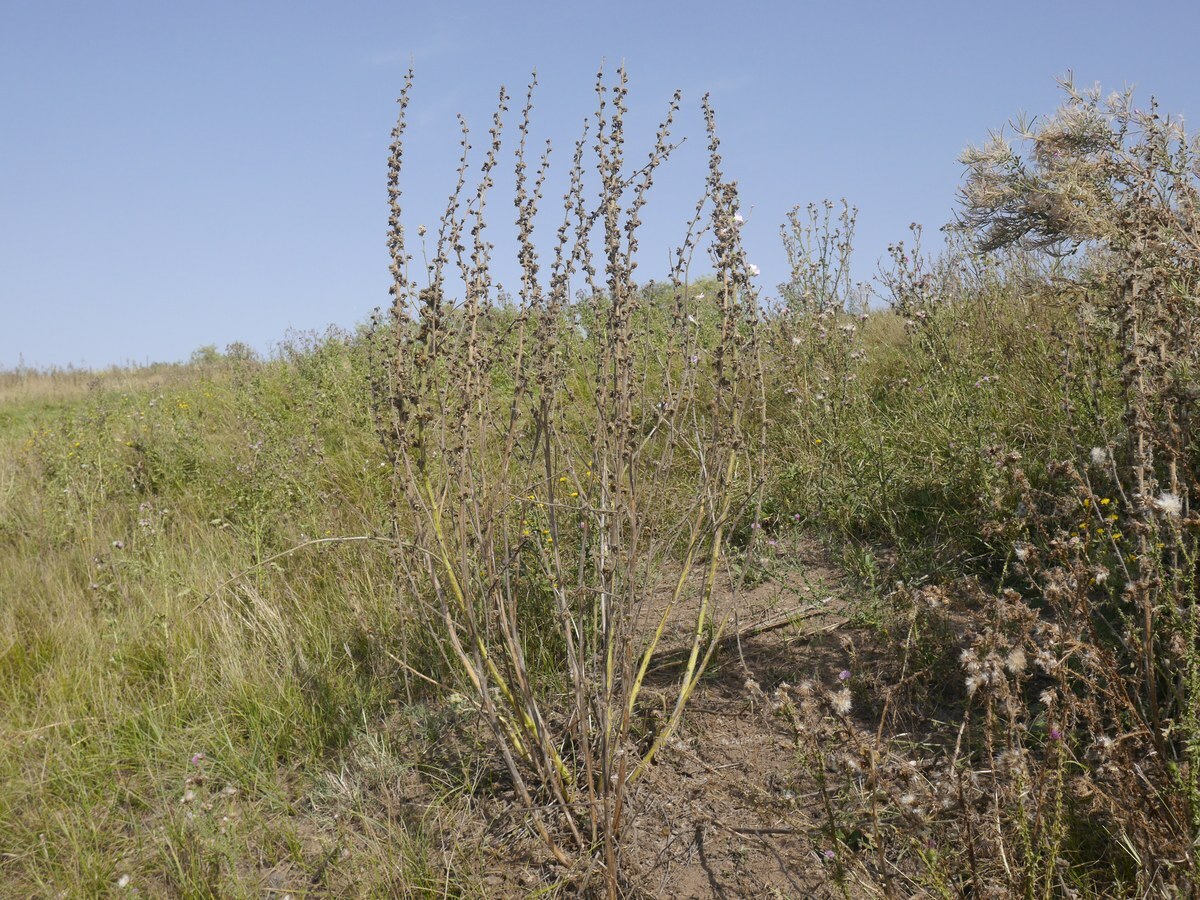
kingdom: Plantae
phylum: Tracheophyta
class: Magnoliopsida
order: Malvales
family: Malvaceae
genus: Alcea
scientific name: Alcea heldreichii
